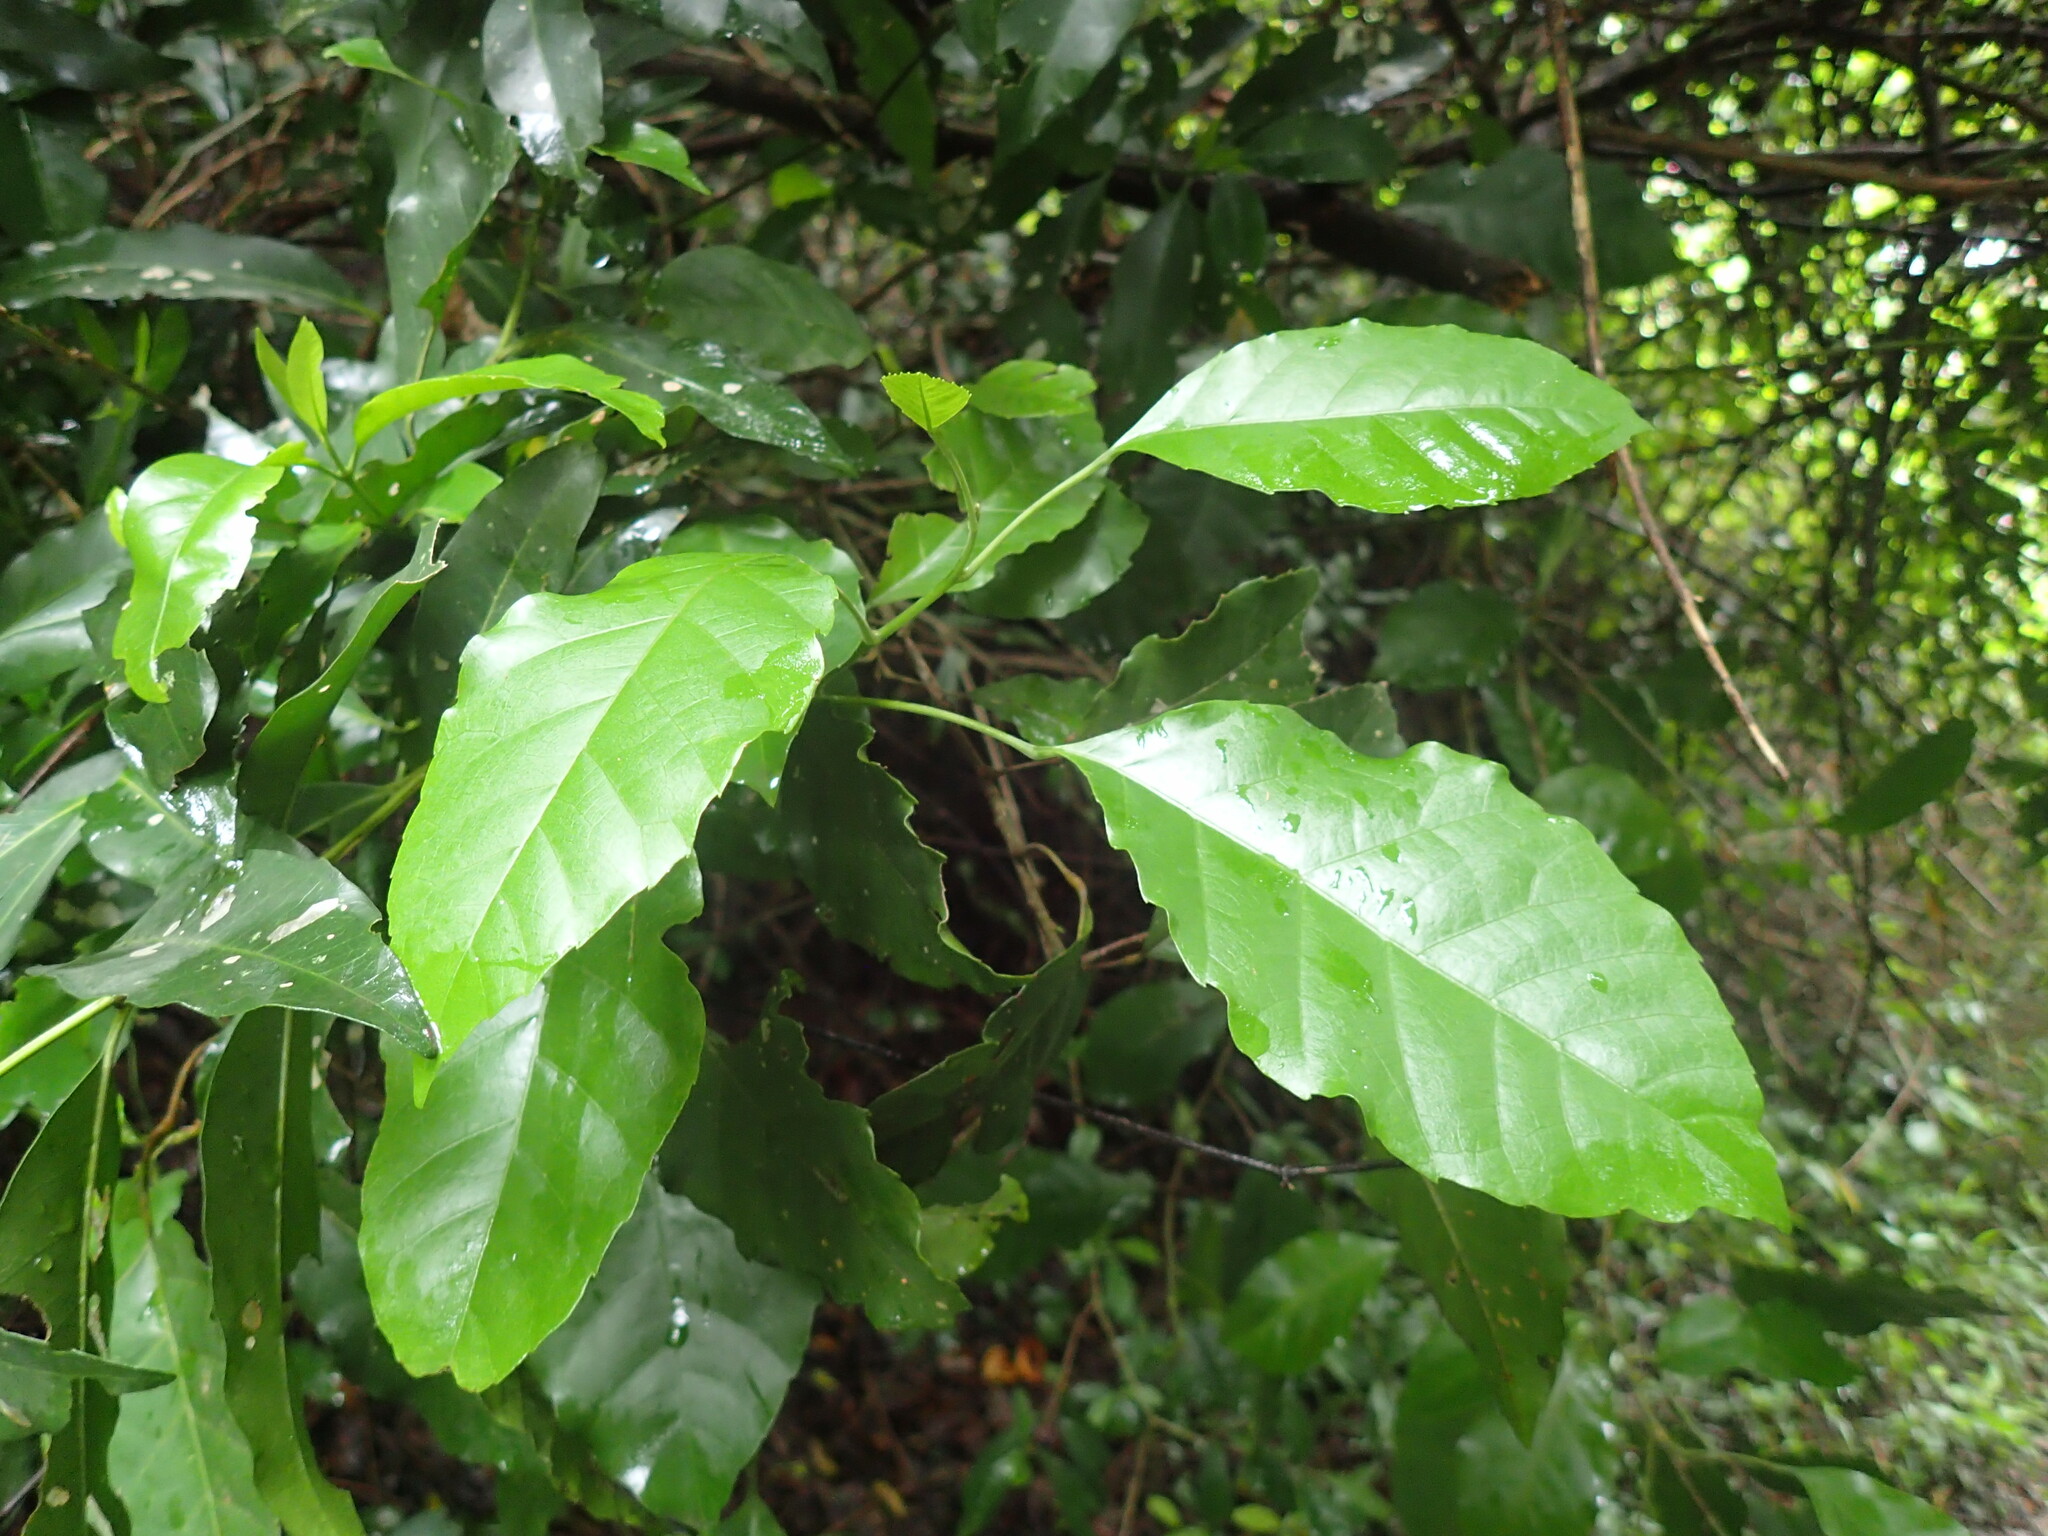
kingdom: Plantae
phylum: Tracheophyta
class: Magnoliopsida
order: Sapindales
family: Sapindaceae
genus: Allophylus
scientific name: Allophylus dregeanus
